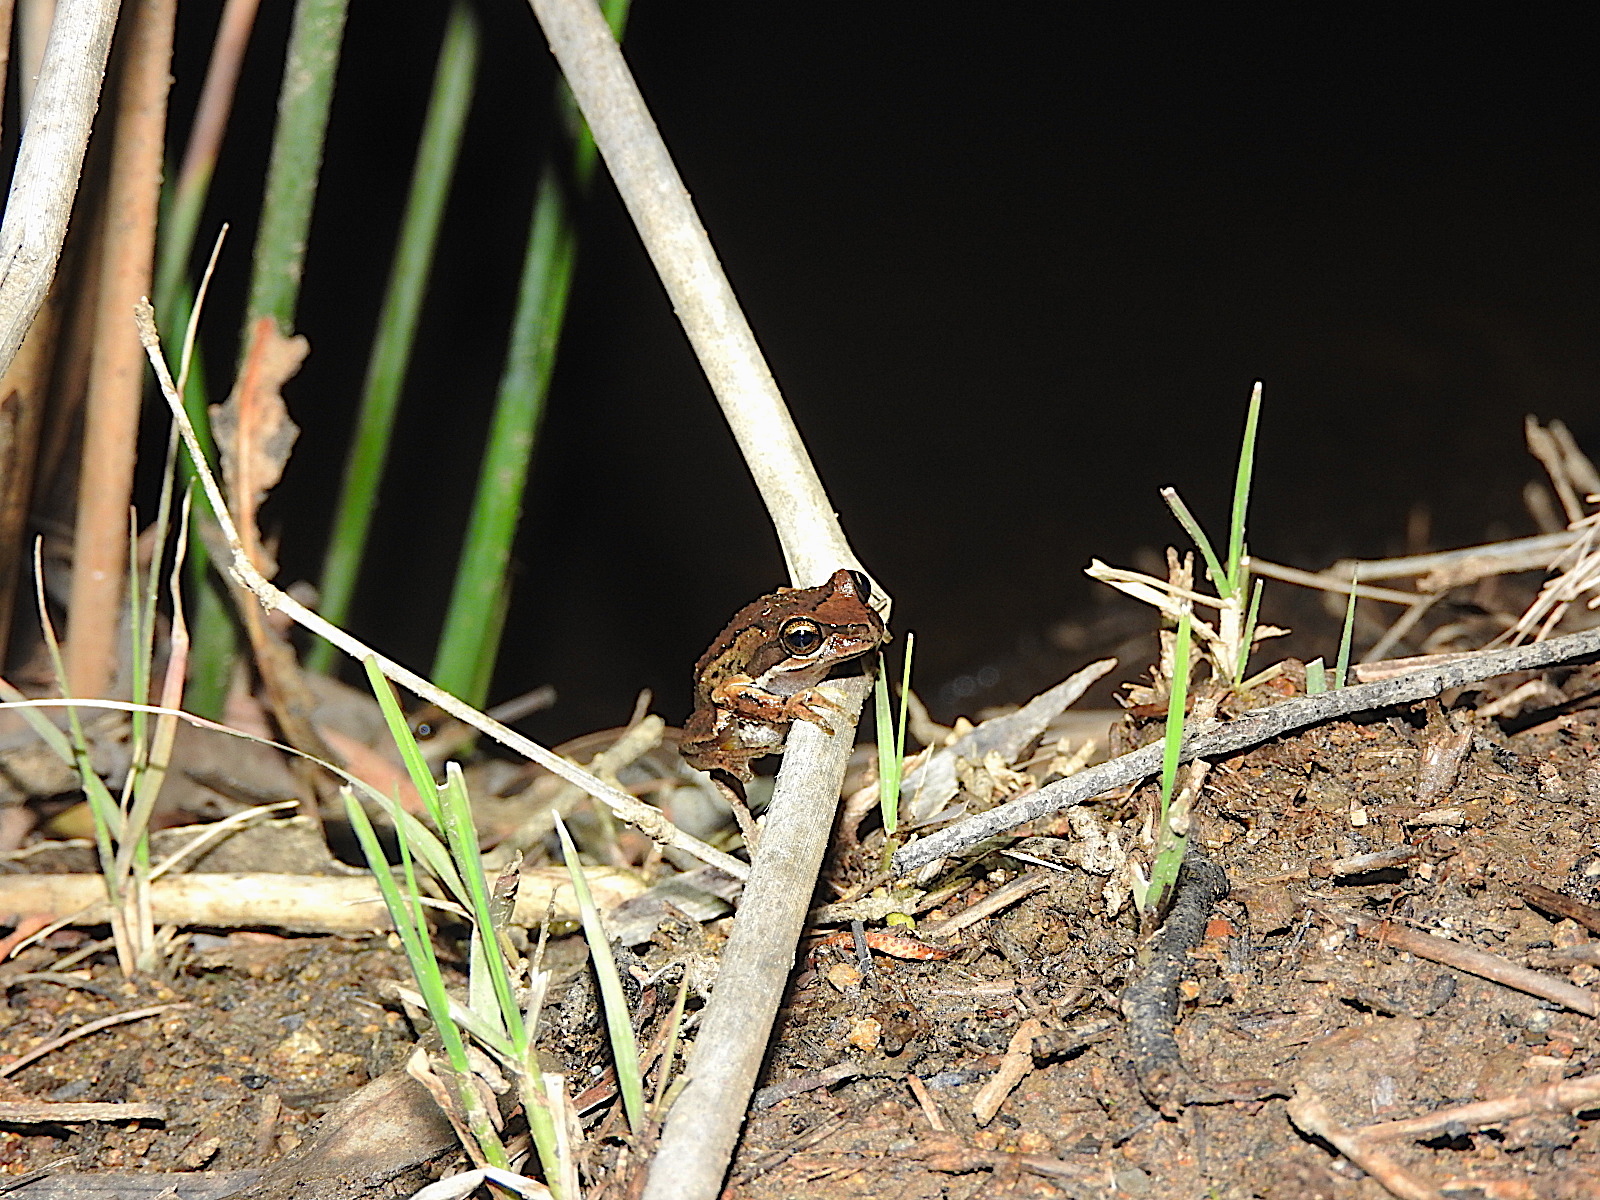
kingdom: Animalia
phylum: Chordata
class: Amphibia
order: Anura
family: Pelodryadidae
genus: Litoria
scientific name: Litoria ewingii
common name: Southern brown tree frog
